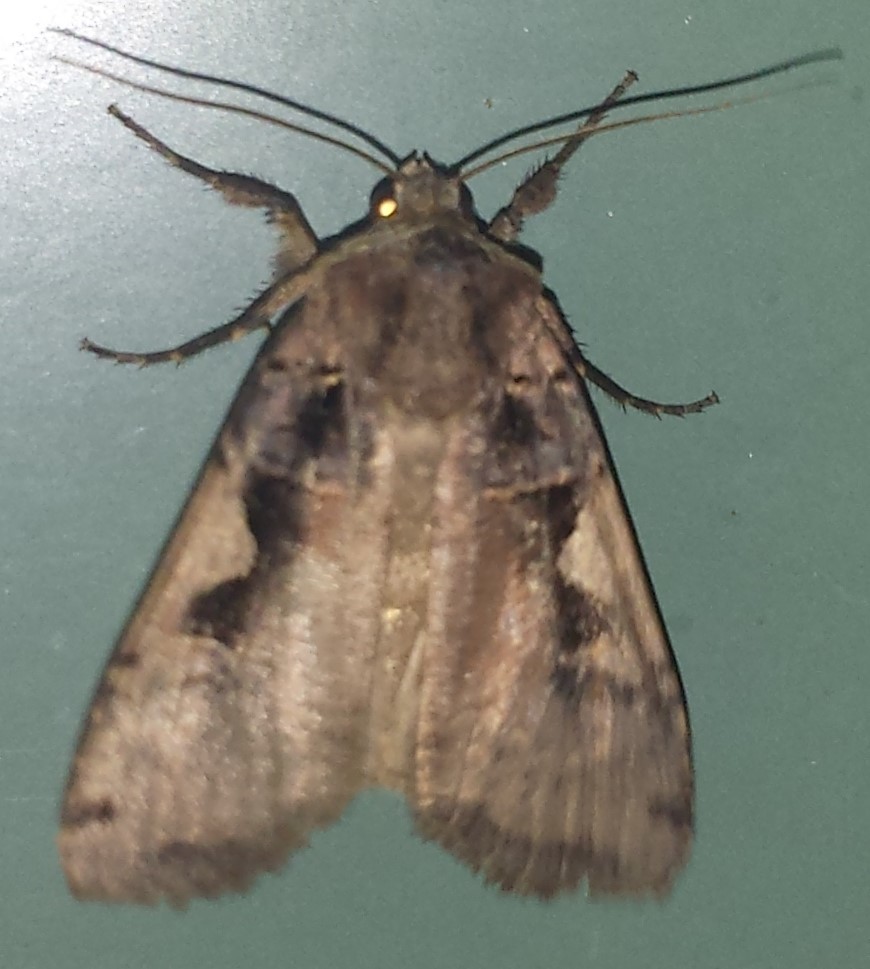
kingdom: Animalia
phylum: Arthropoda
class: Insecta
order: Lepidoptera
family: Noctuidae
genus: Xestia
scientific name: Xestia
